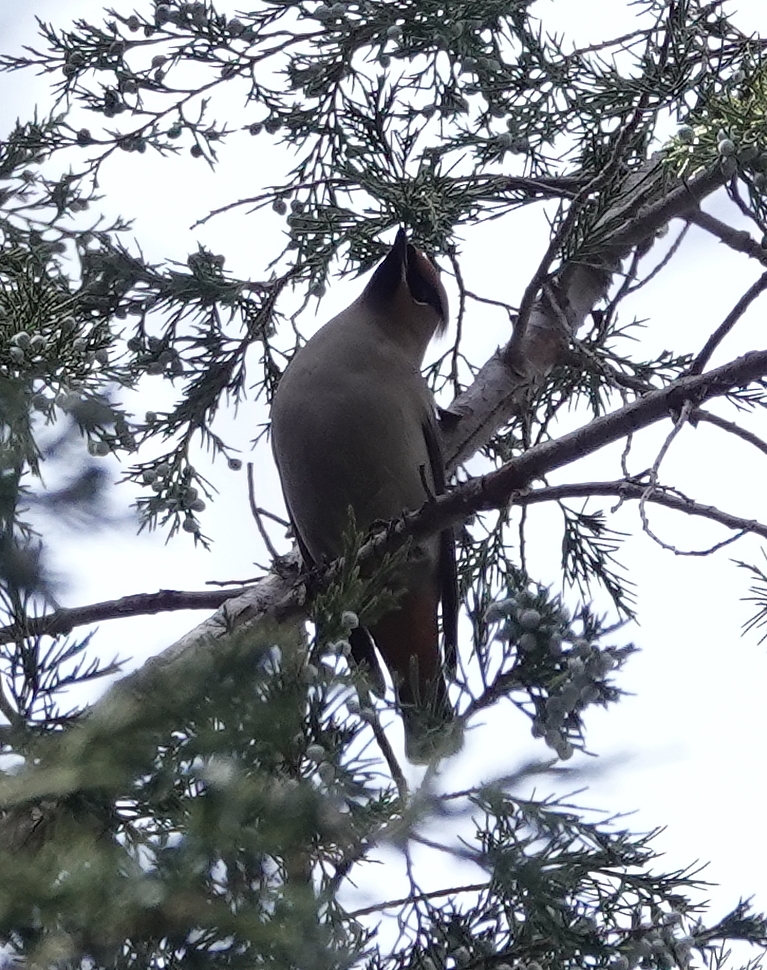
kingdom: Animalia
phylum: Chordata
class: Aves
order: Passeriformes
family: Bombycillidae
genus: Bombycilla
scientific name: Bombycilla garrulus
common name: Bohemian waxwing
